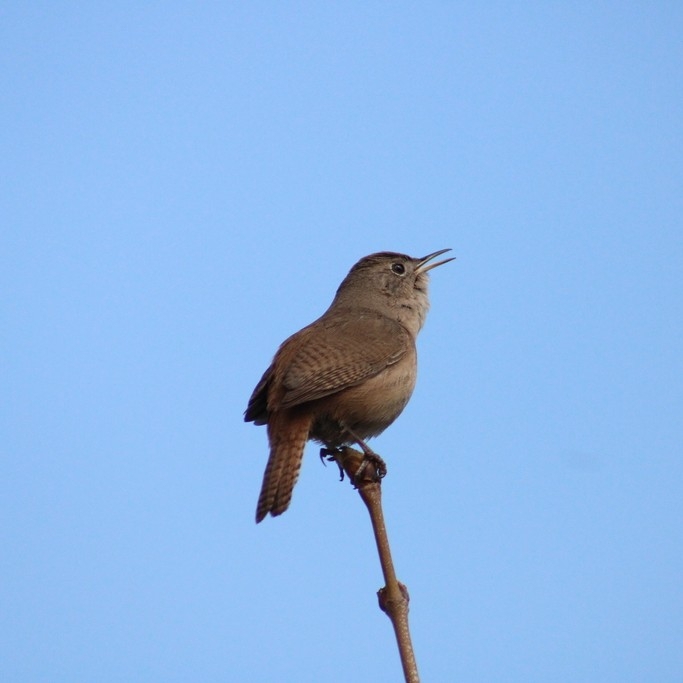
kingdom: Animalia
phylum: Chordata
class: Aves
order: Passeriformes
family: Troglodytidae
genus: Troglodytes
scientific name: Troglodytes aedon
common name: House wren
